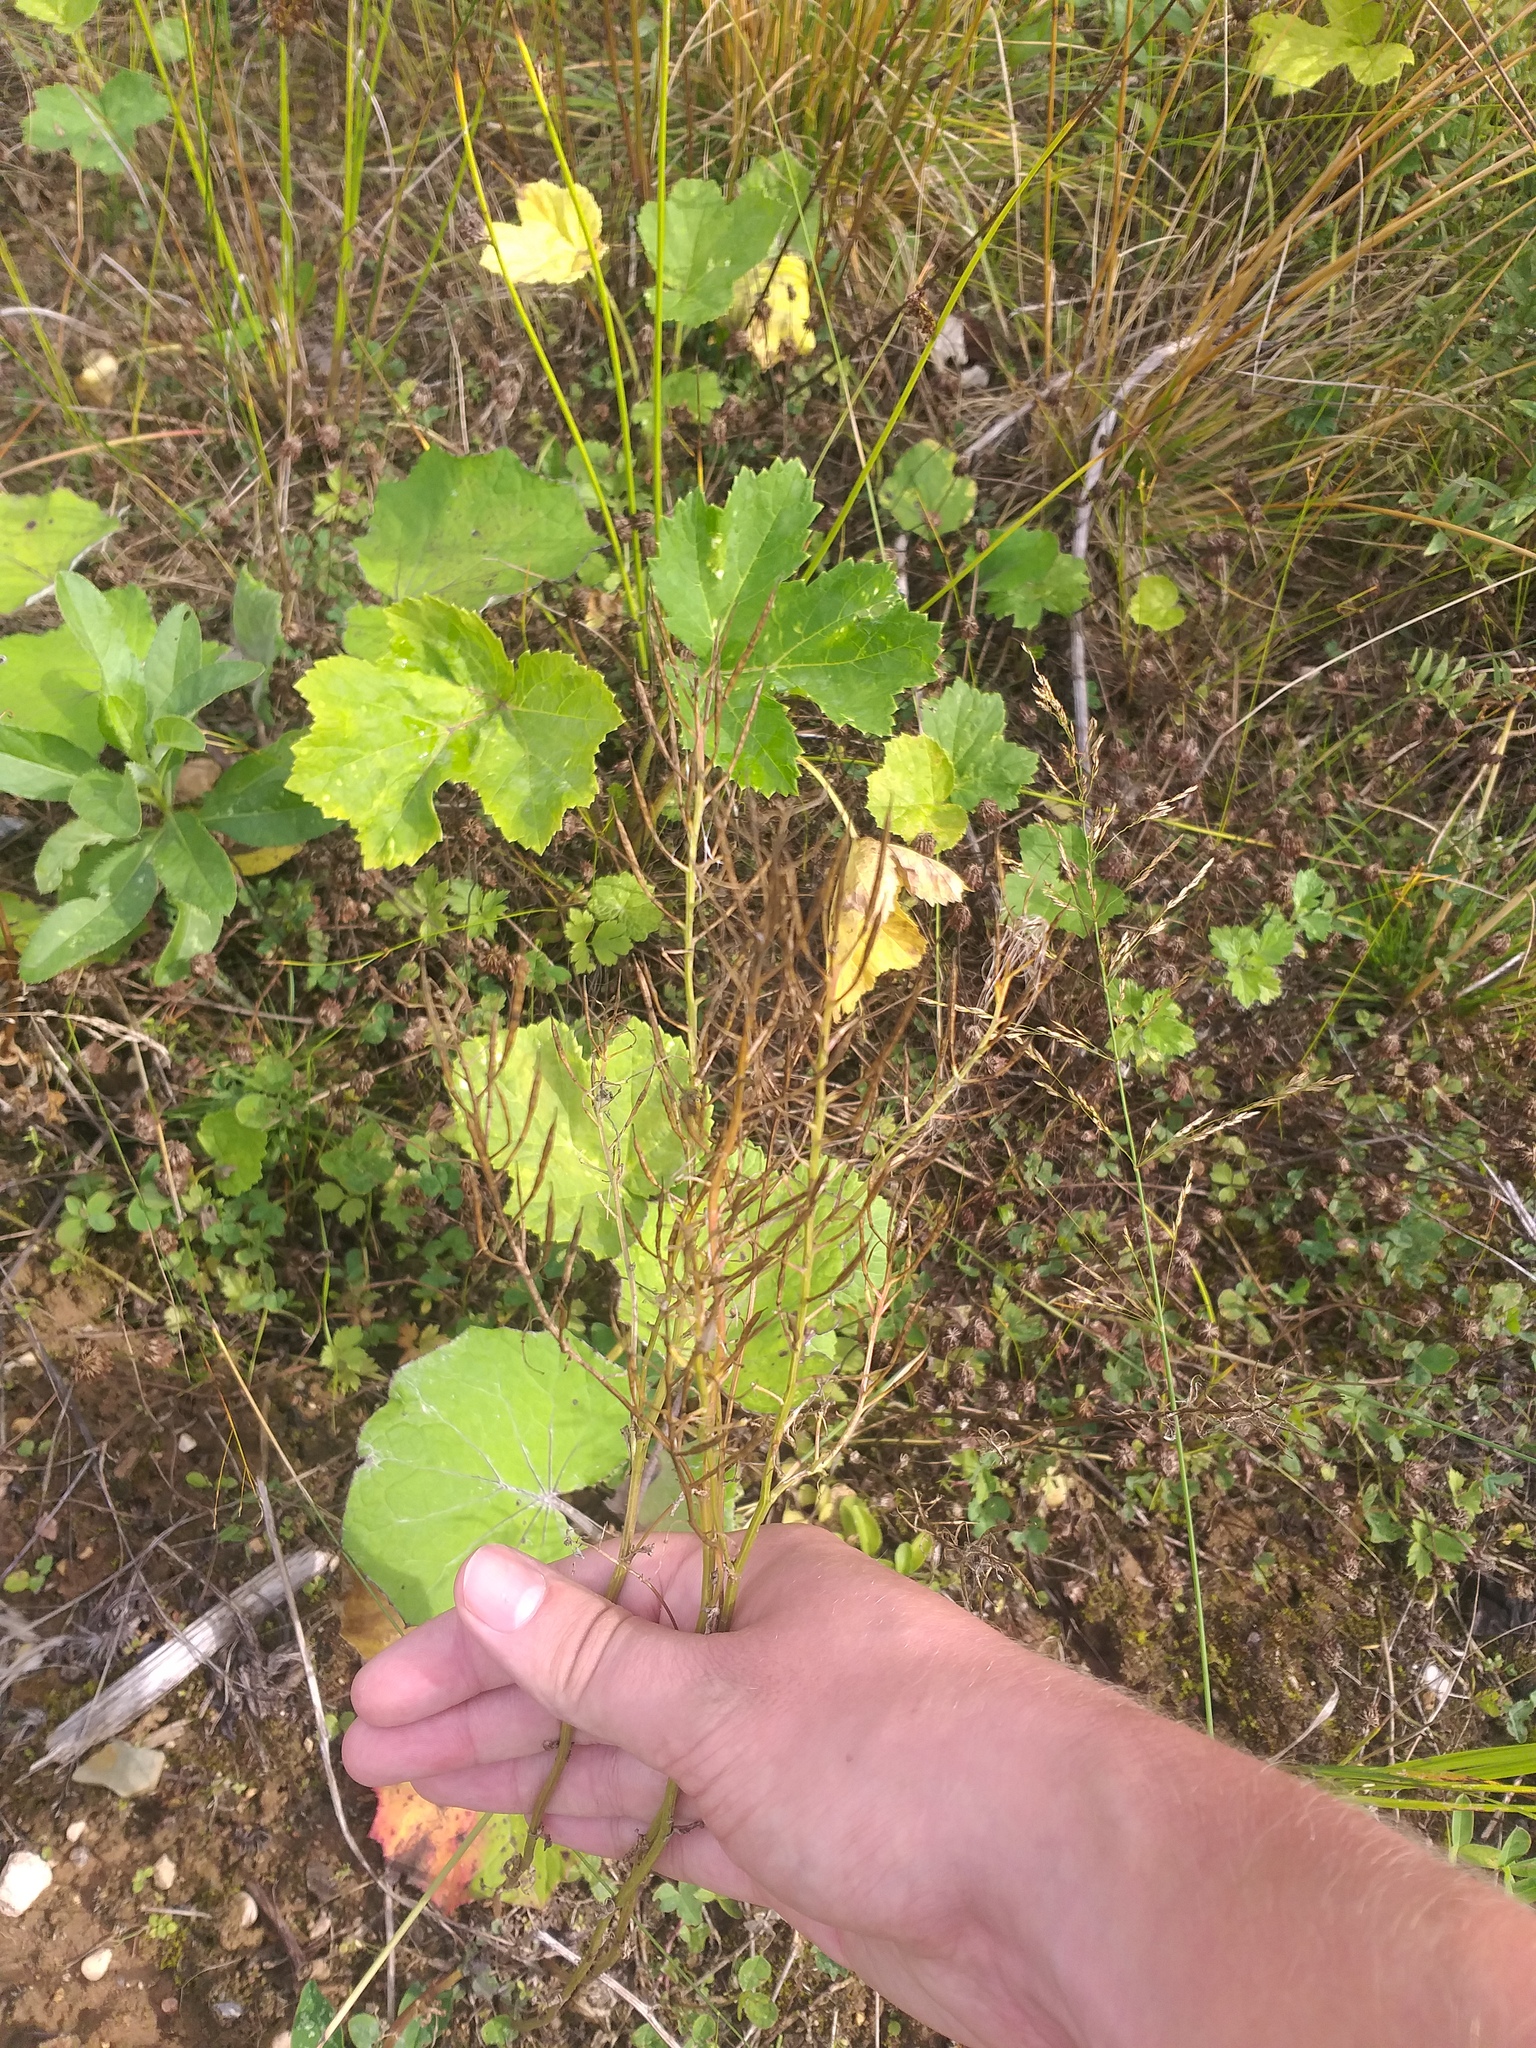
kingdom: Plantae
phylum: Tracheophyta
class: Magnoliopsida
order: Brassicales
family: Brassicaceae
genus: Barbarea
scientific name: Barbarea vulgaris
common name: Cressy-greens
